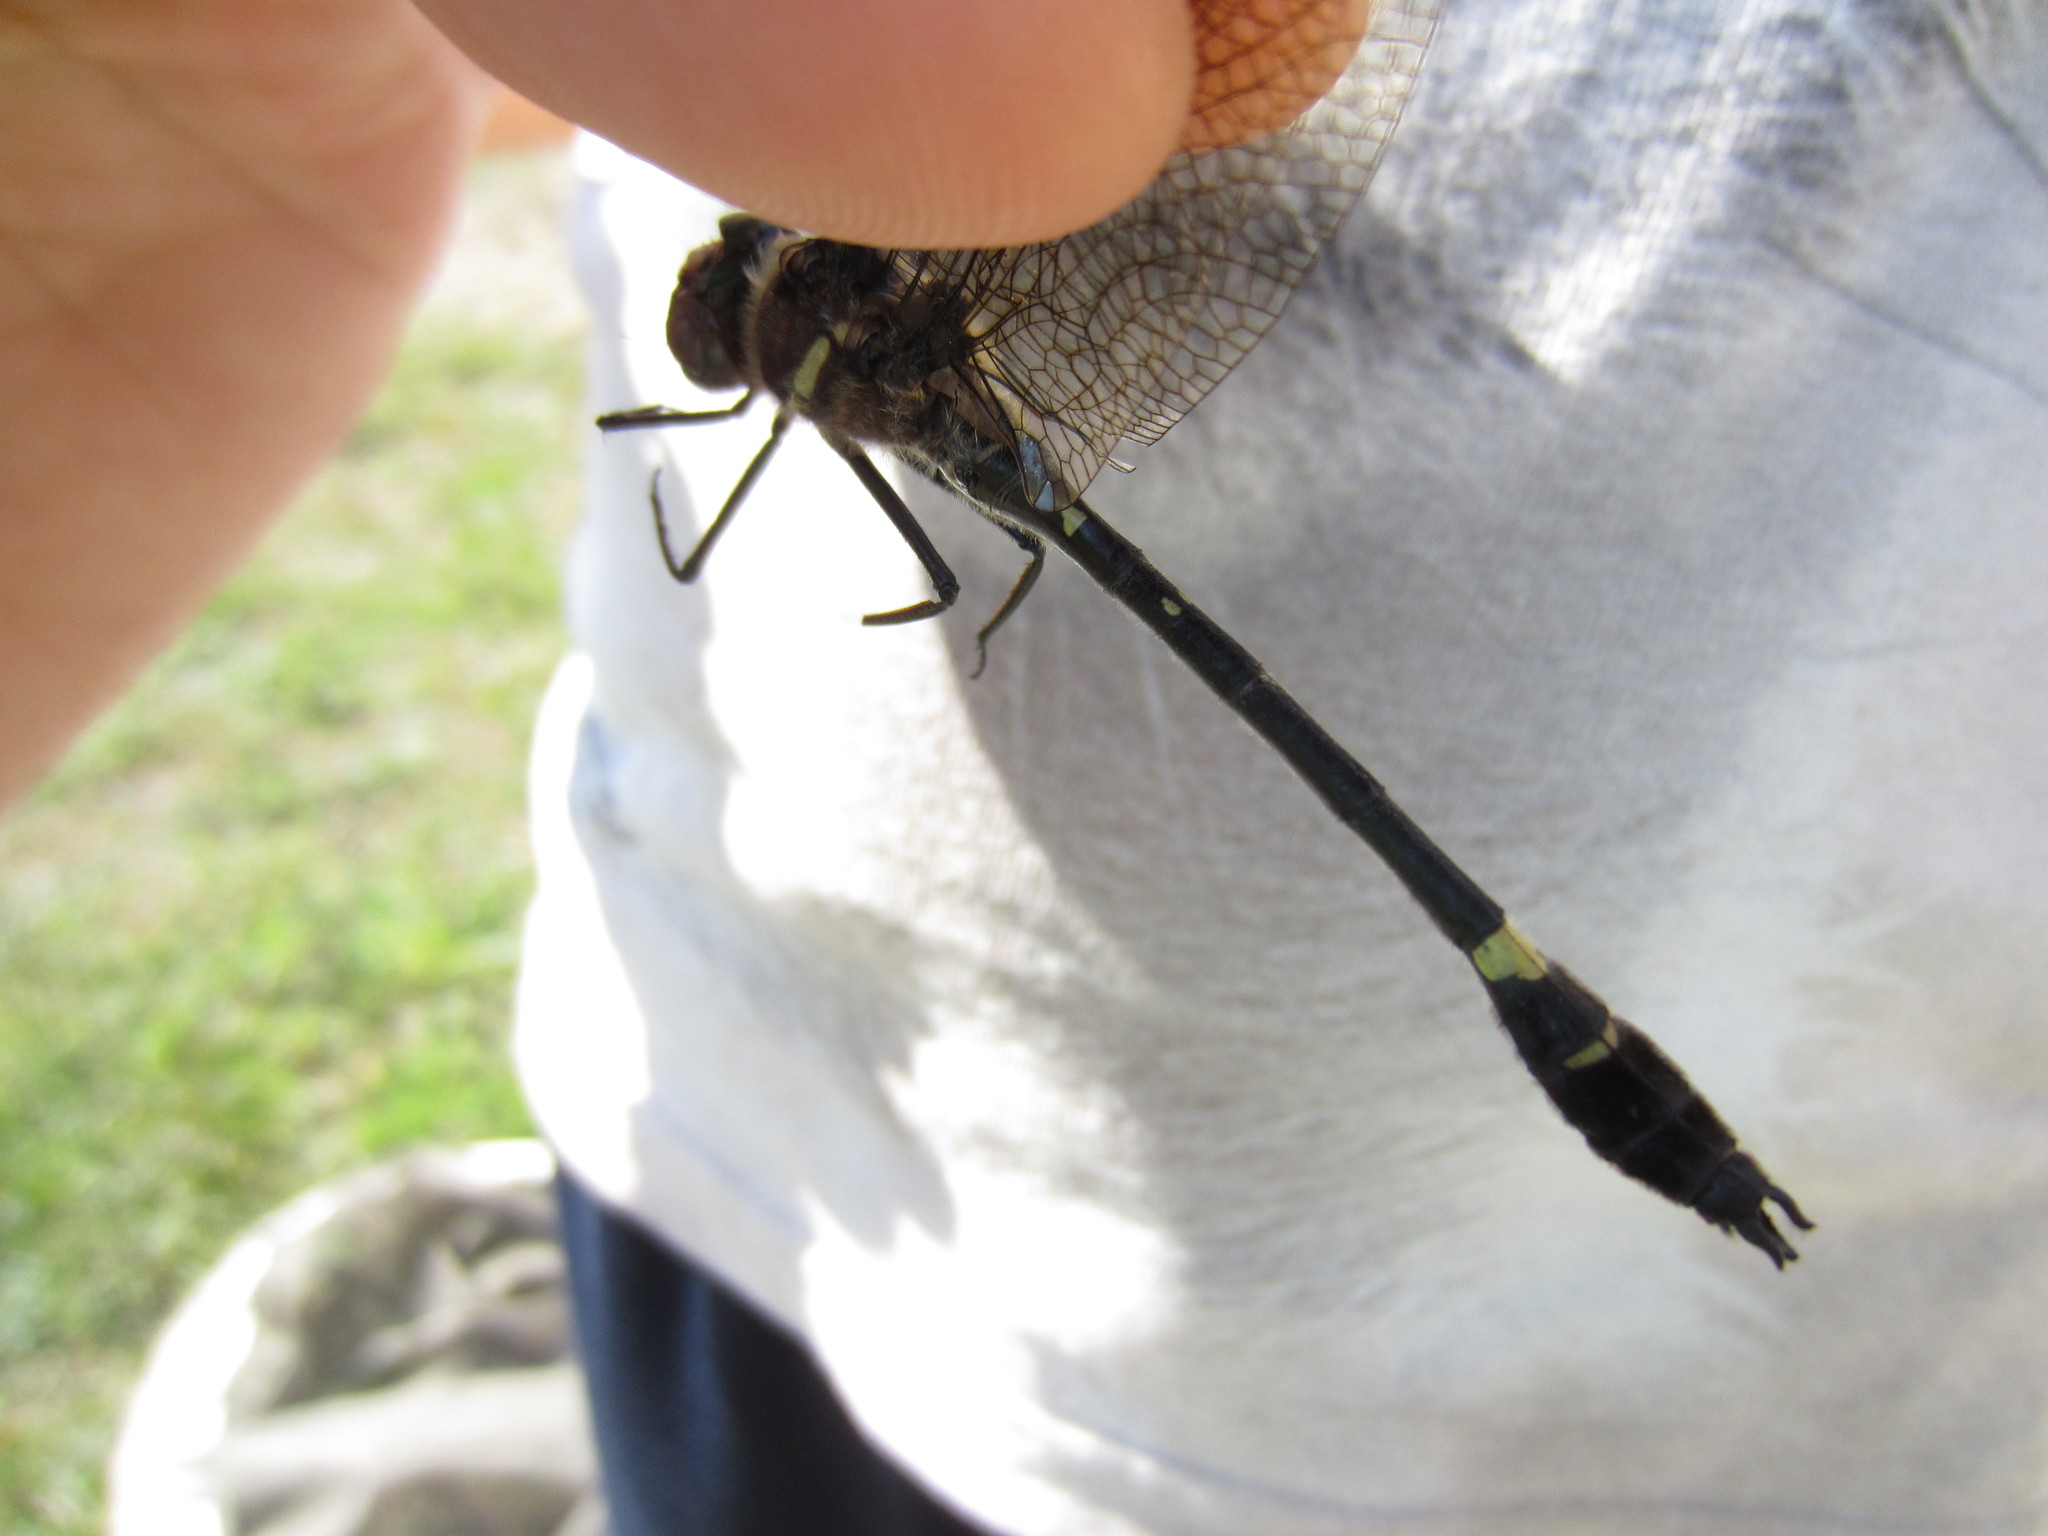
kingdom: Animalia
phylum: Arthropoda
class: Insecta
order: Odonata
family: Macromiidae
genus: Macromia
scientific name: Macromia illinoiensis
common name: Swift river cruiser
